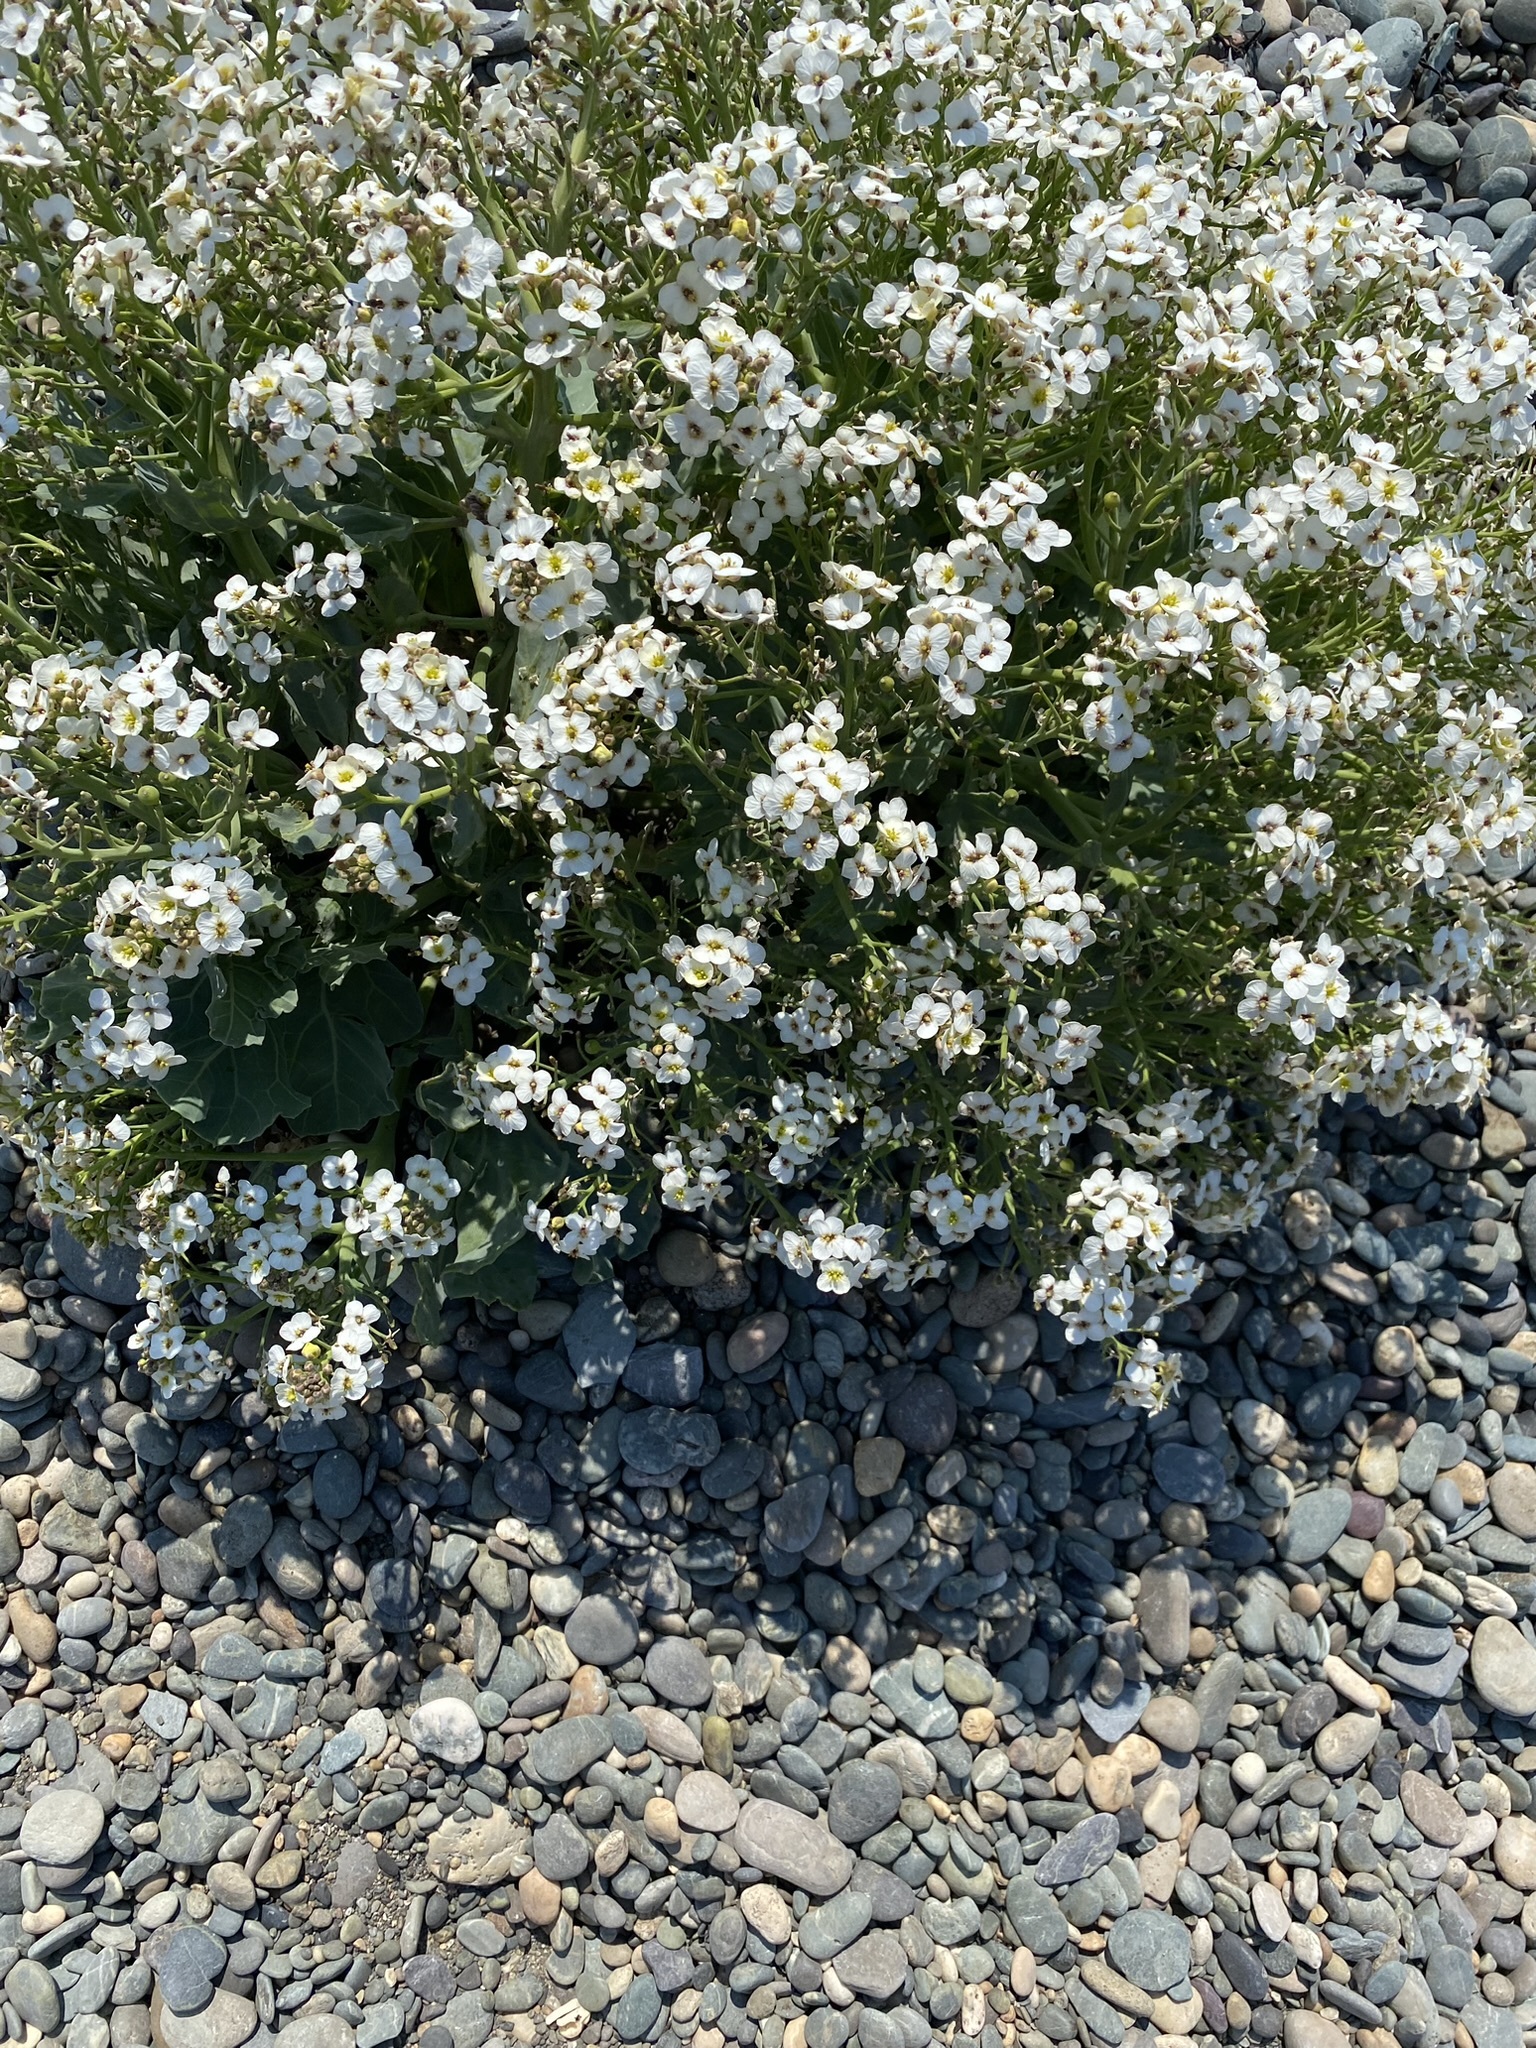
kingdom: Plantae
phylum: Tracheophyta
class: Magnoliopsida
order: Brassicales
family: Brassicaceae
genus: Crambe
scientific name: Crambe maritima
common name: Sea-kale
